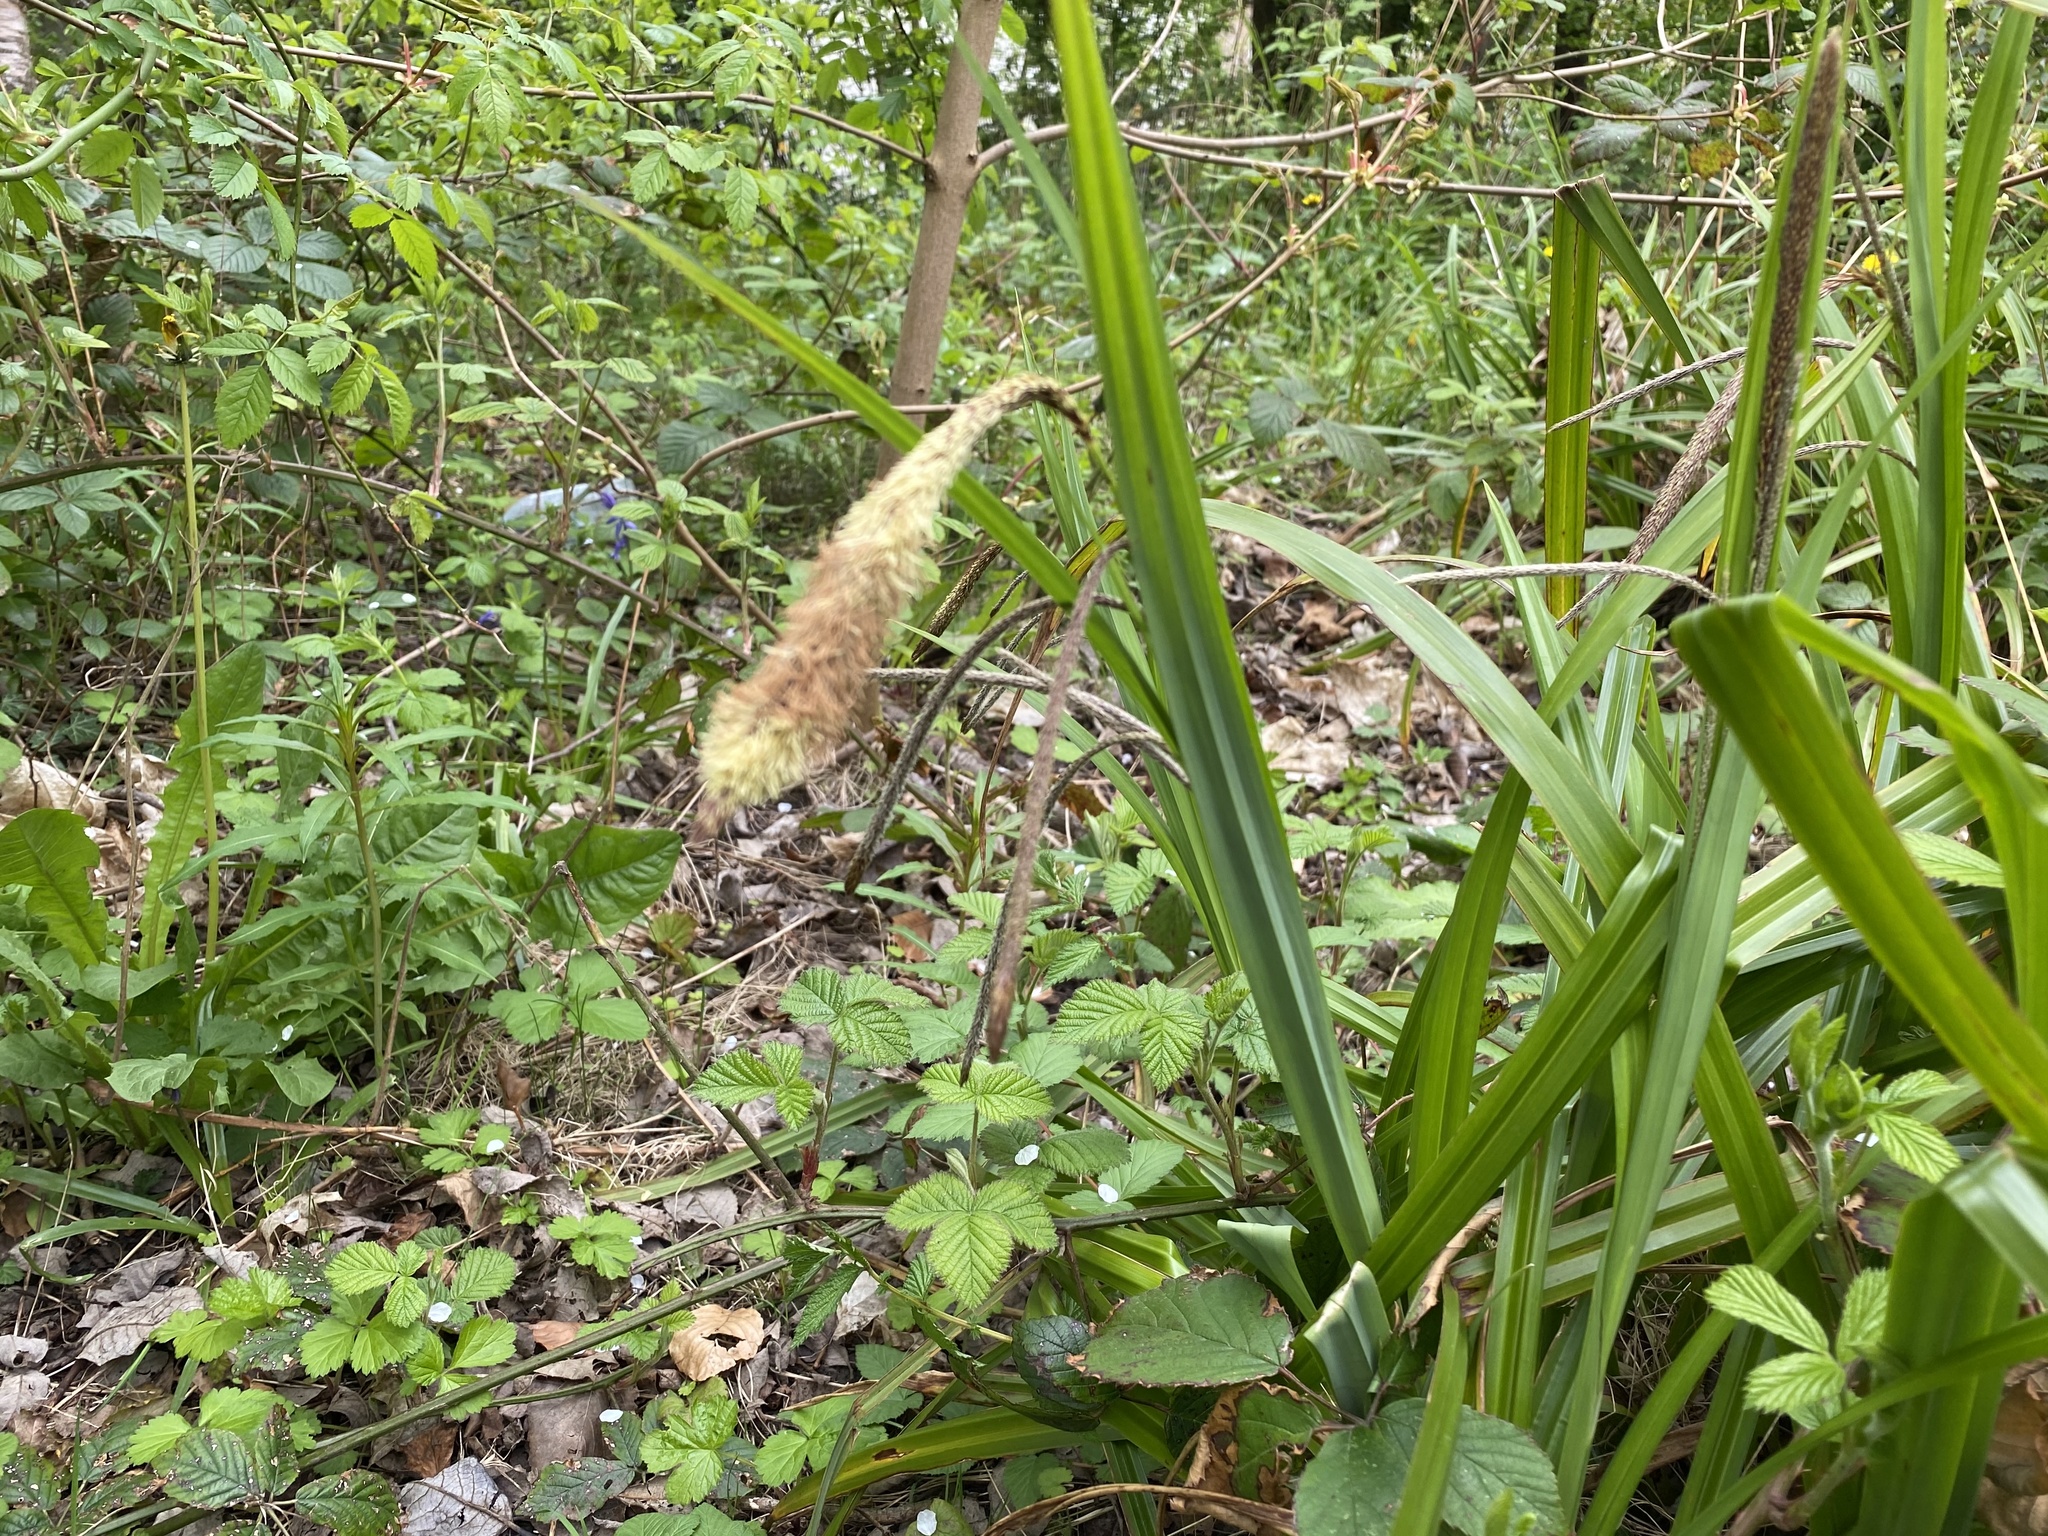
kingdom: Plantae
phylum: Tracheophyta
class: Liliopsida
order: Poales
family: Cyperaceae
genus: Carex
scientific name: Carex pendula
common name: Pendulous sedge
